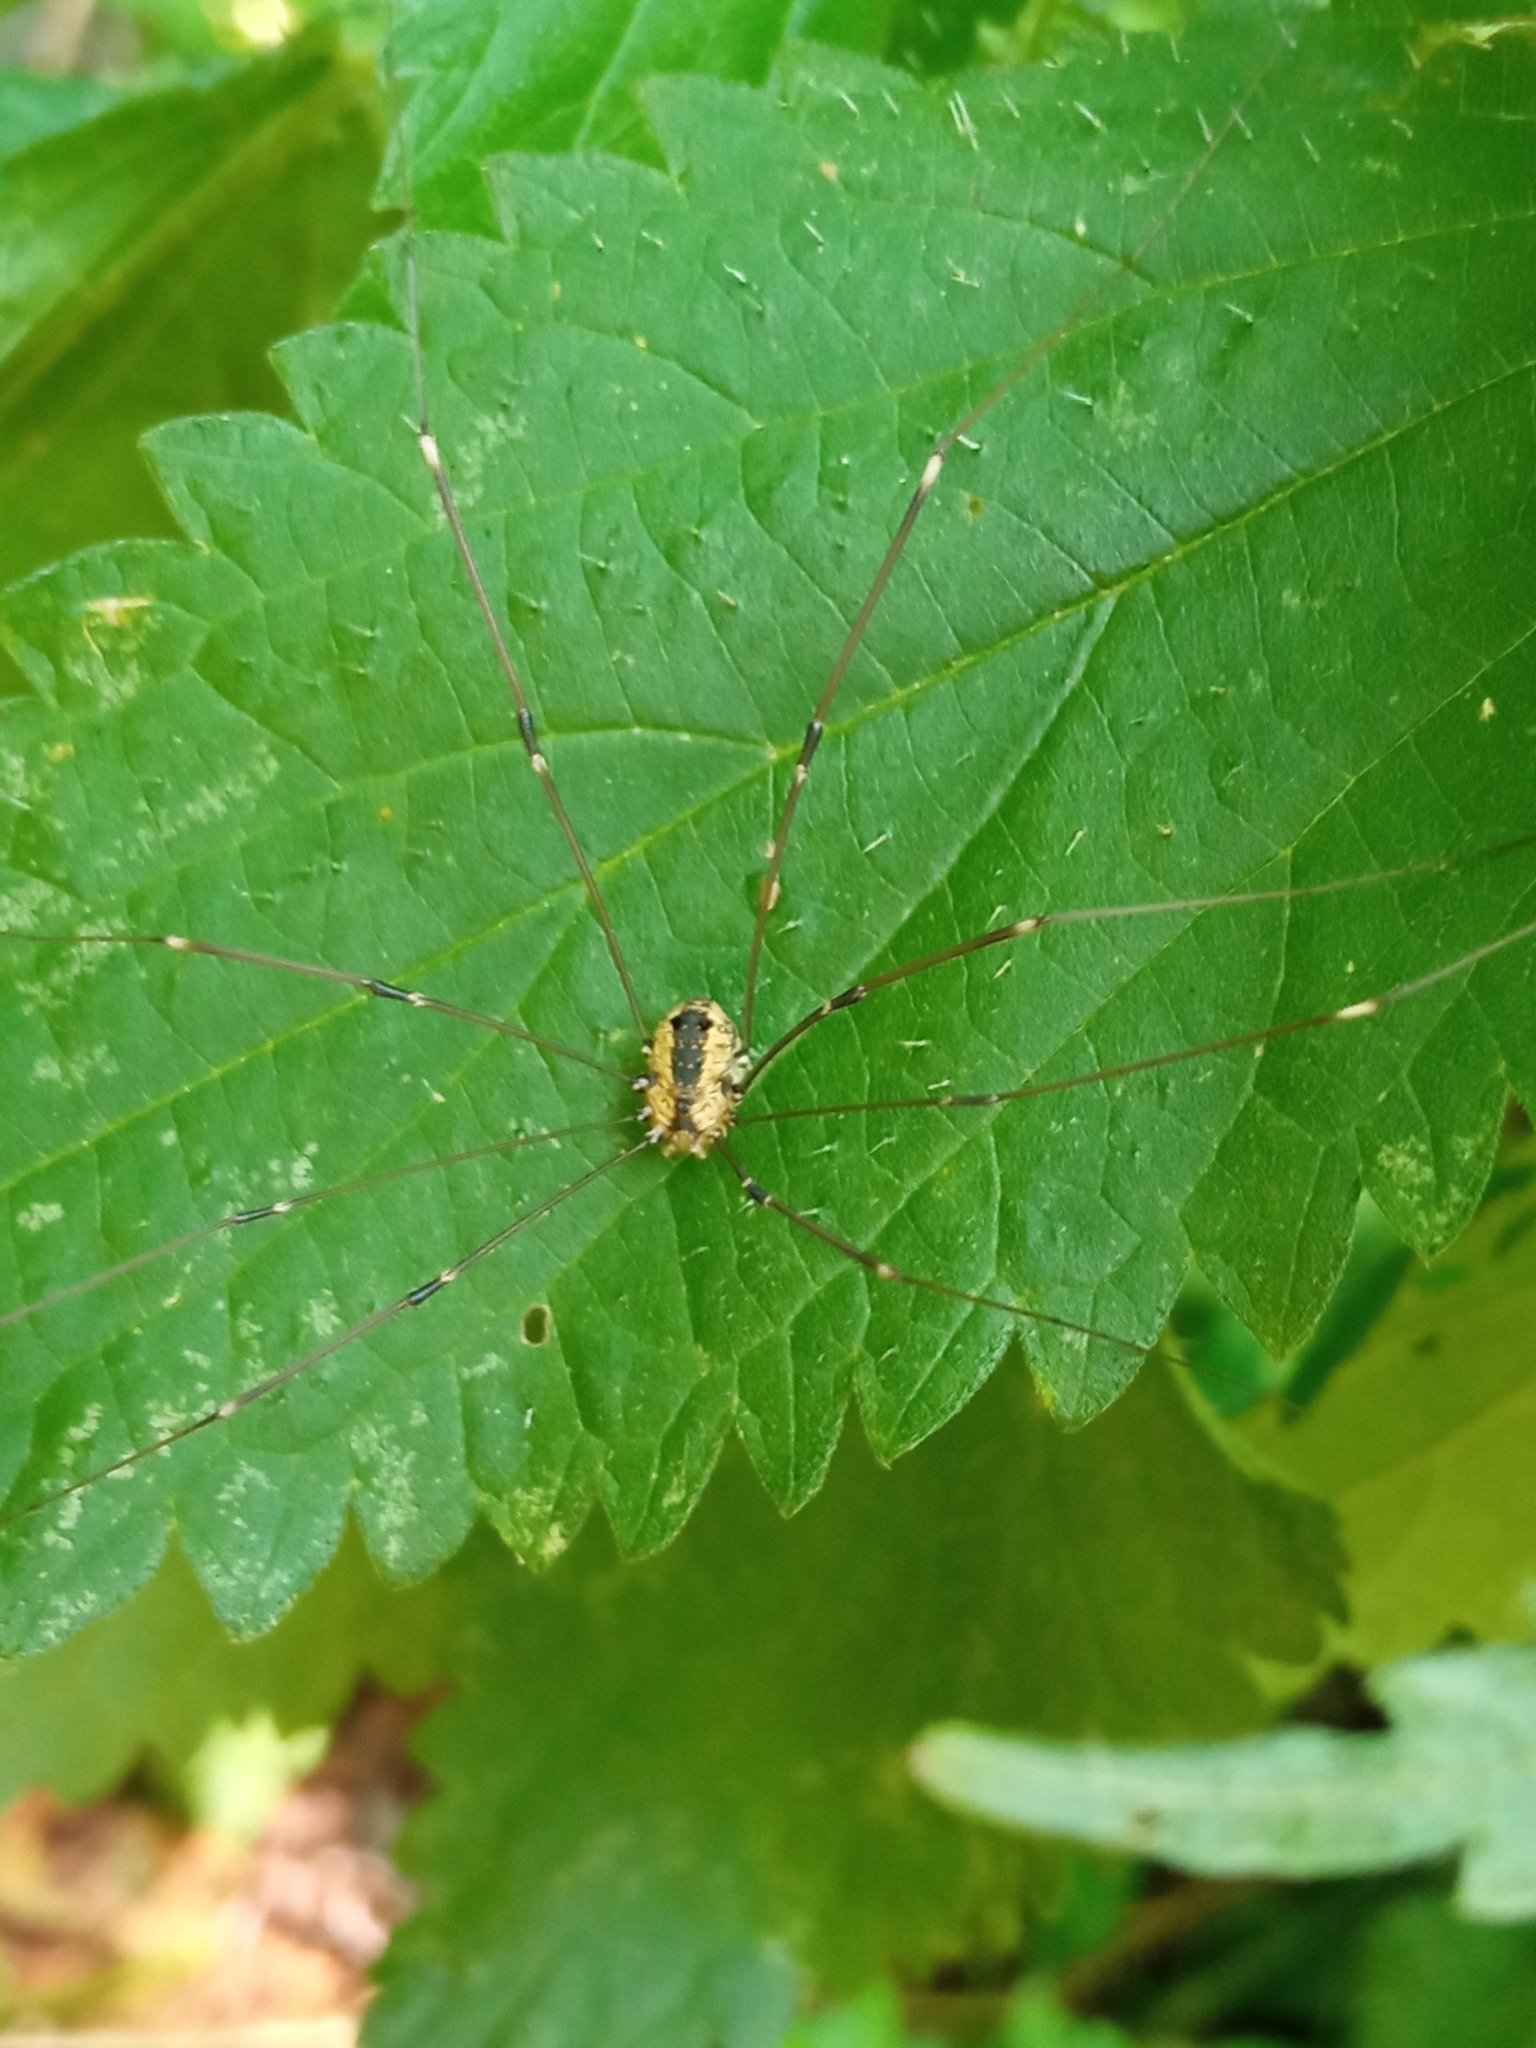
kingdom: Animalia
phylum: Arthropoda
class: Arachnida
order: Opiliones
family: Sclerosomatidae
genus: Leiobunum
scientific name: Leiobunum rotundum
